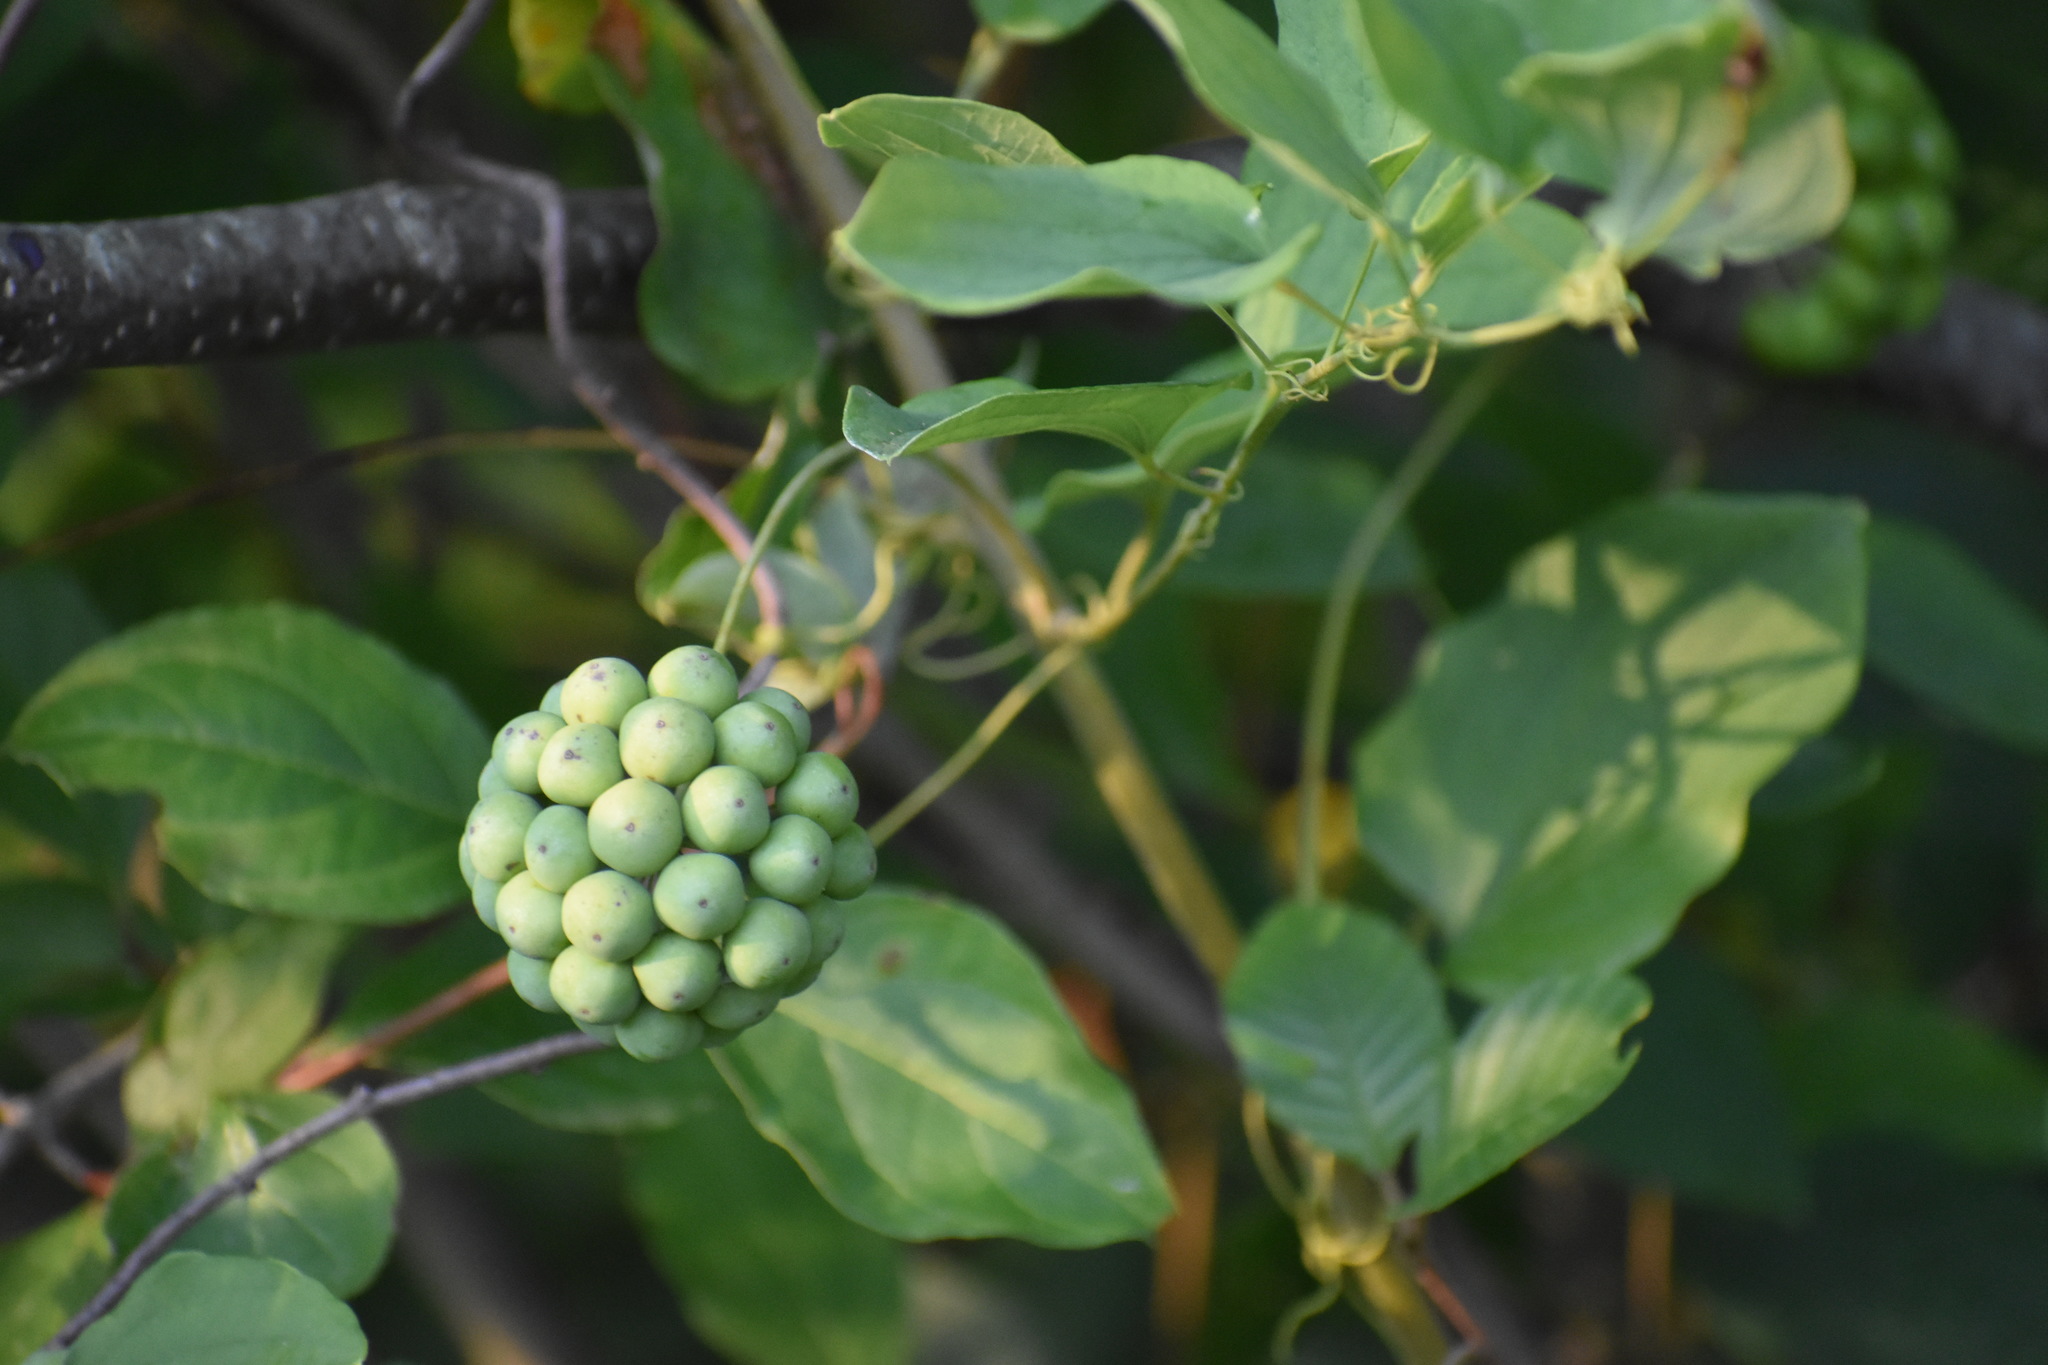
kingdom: Plantae
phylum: Tracheophyta
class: Liliopsida
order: Liliales
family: Smilacaceae
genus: Smilax
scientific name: Smilax herbacea
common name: Jacob's-ladder
